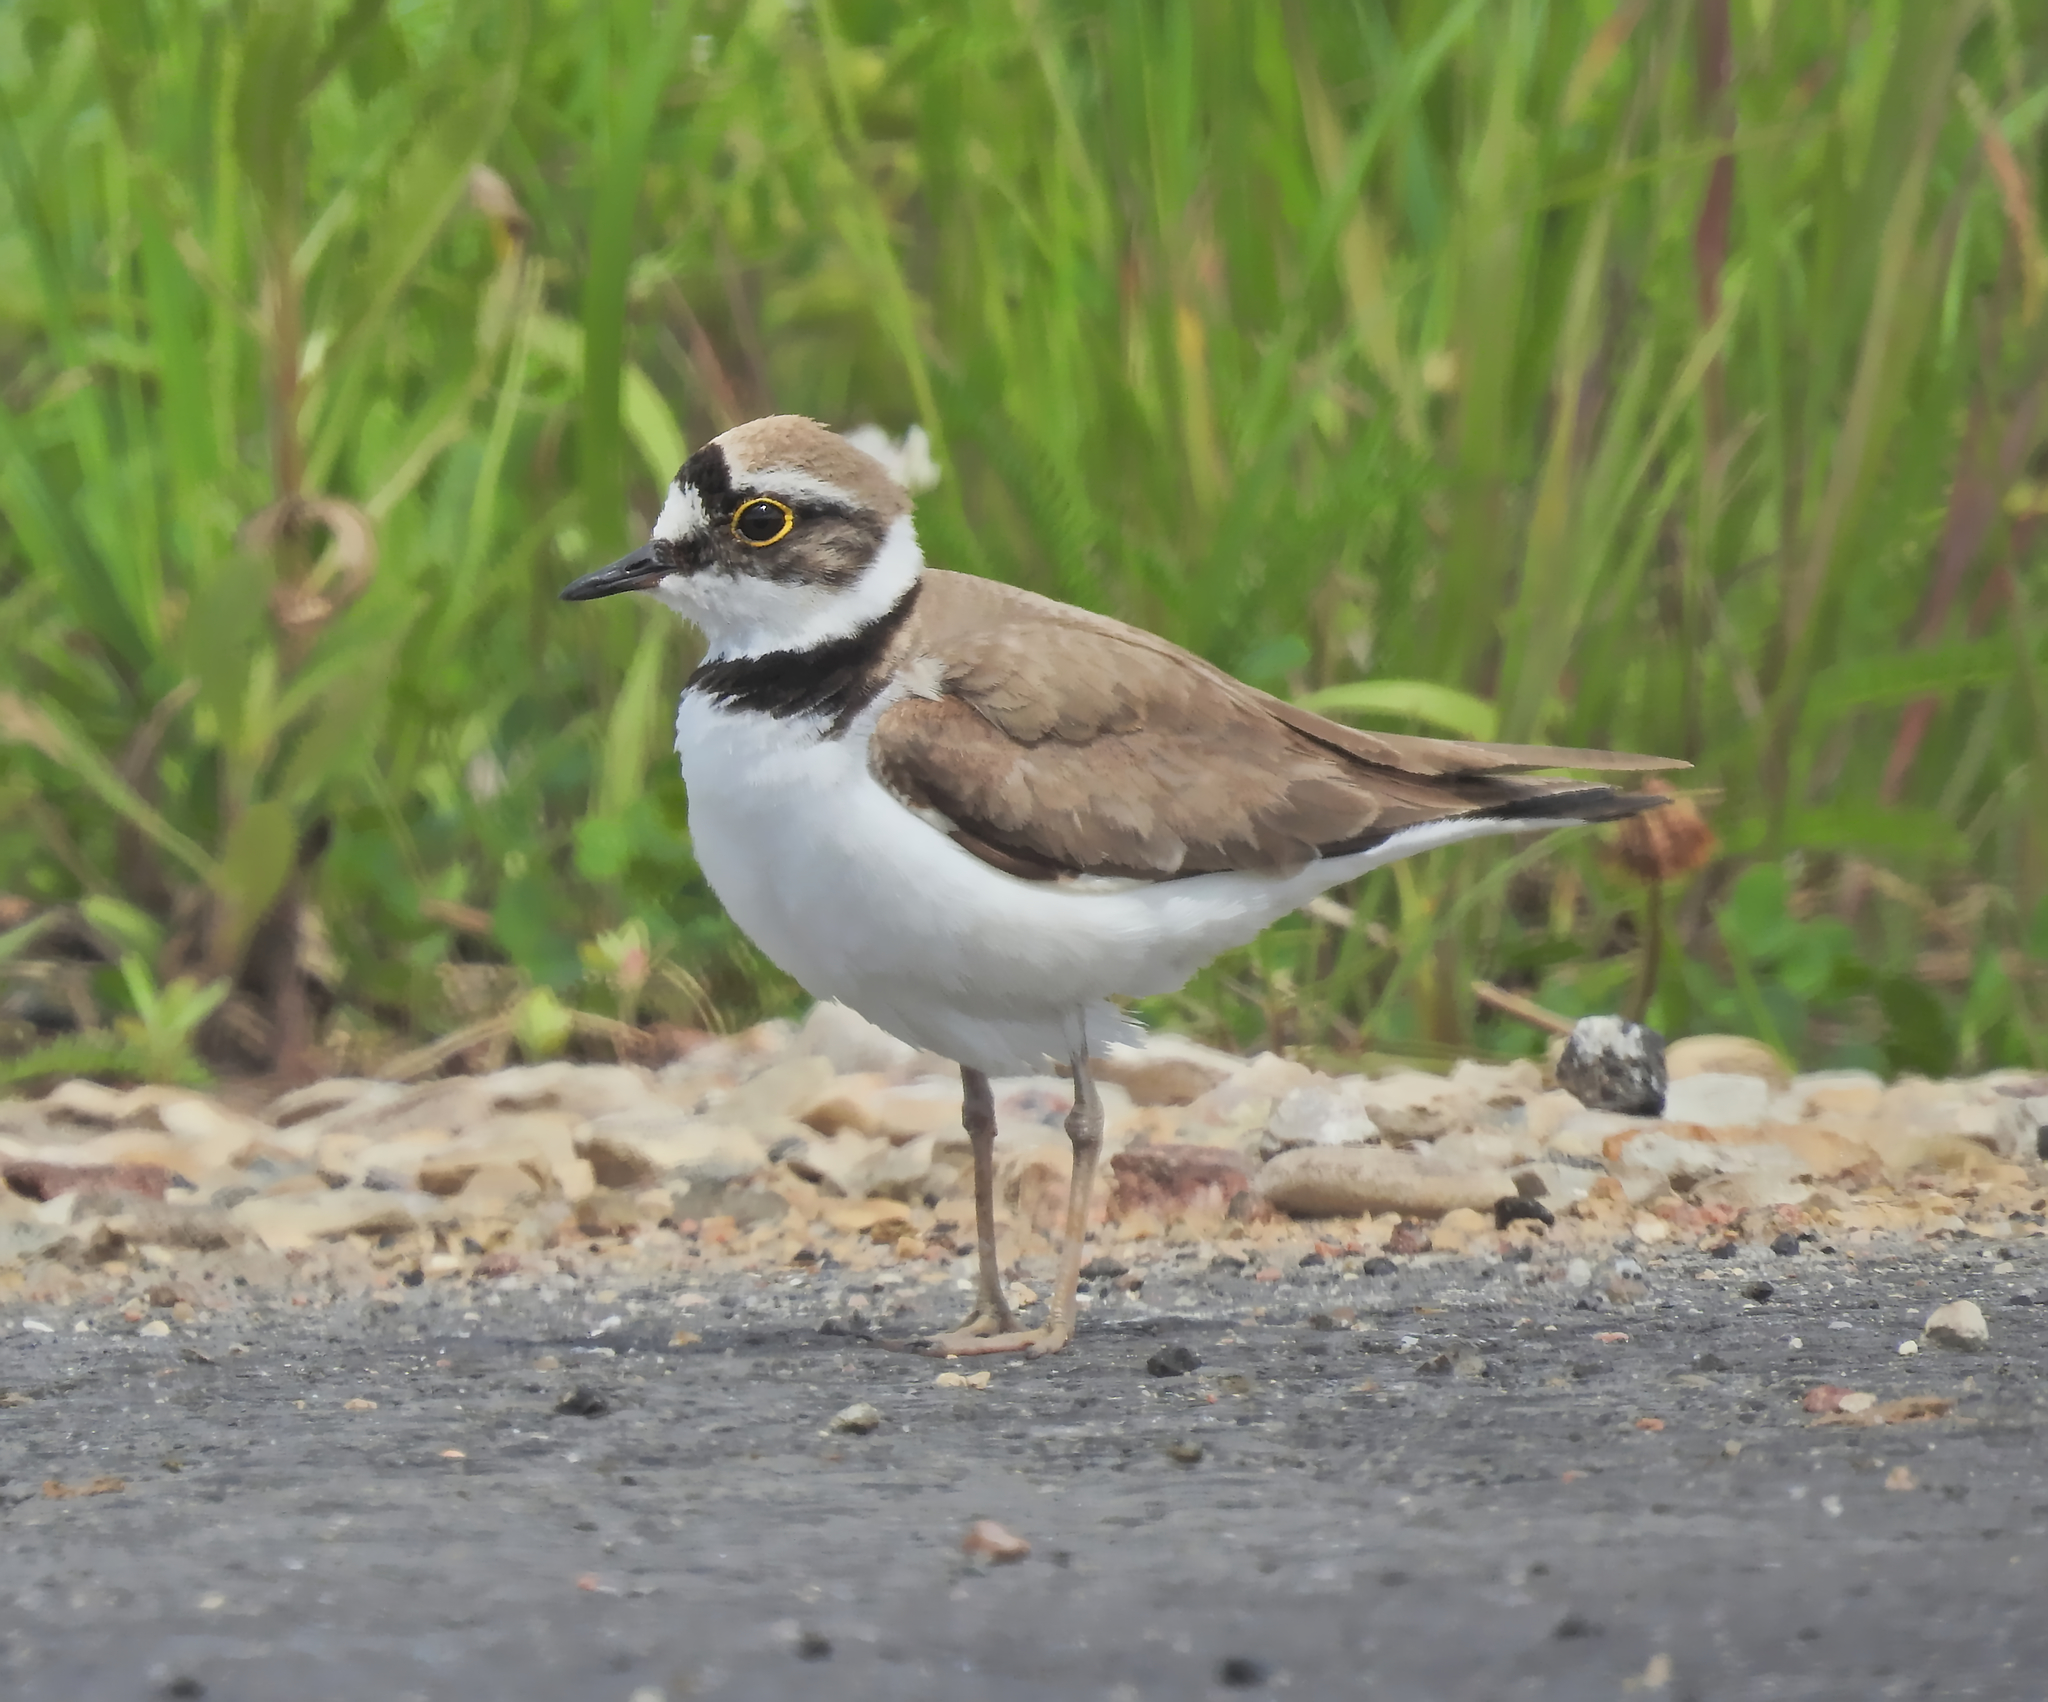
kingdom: Animalia
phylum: Chordata
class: Aves
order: Charadriiformes
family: Charadriidae
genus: Charadrius
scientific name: Charadrius dubius
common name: Little ringed plover
